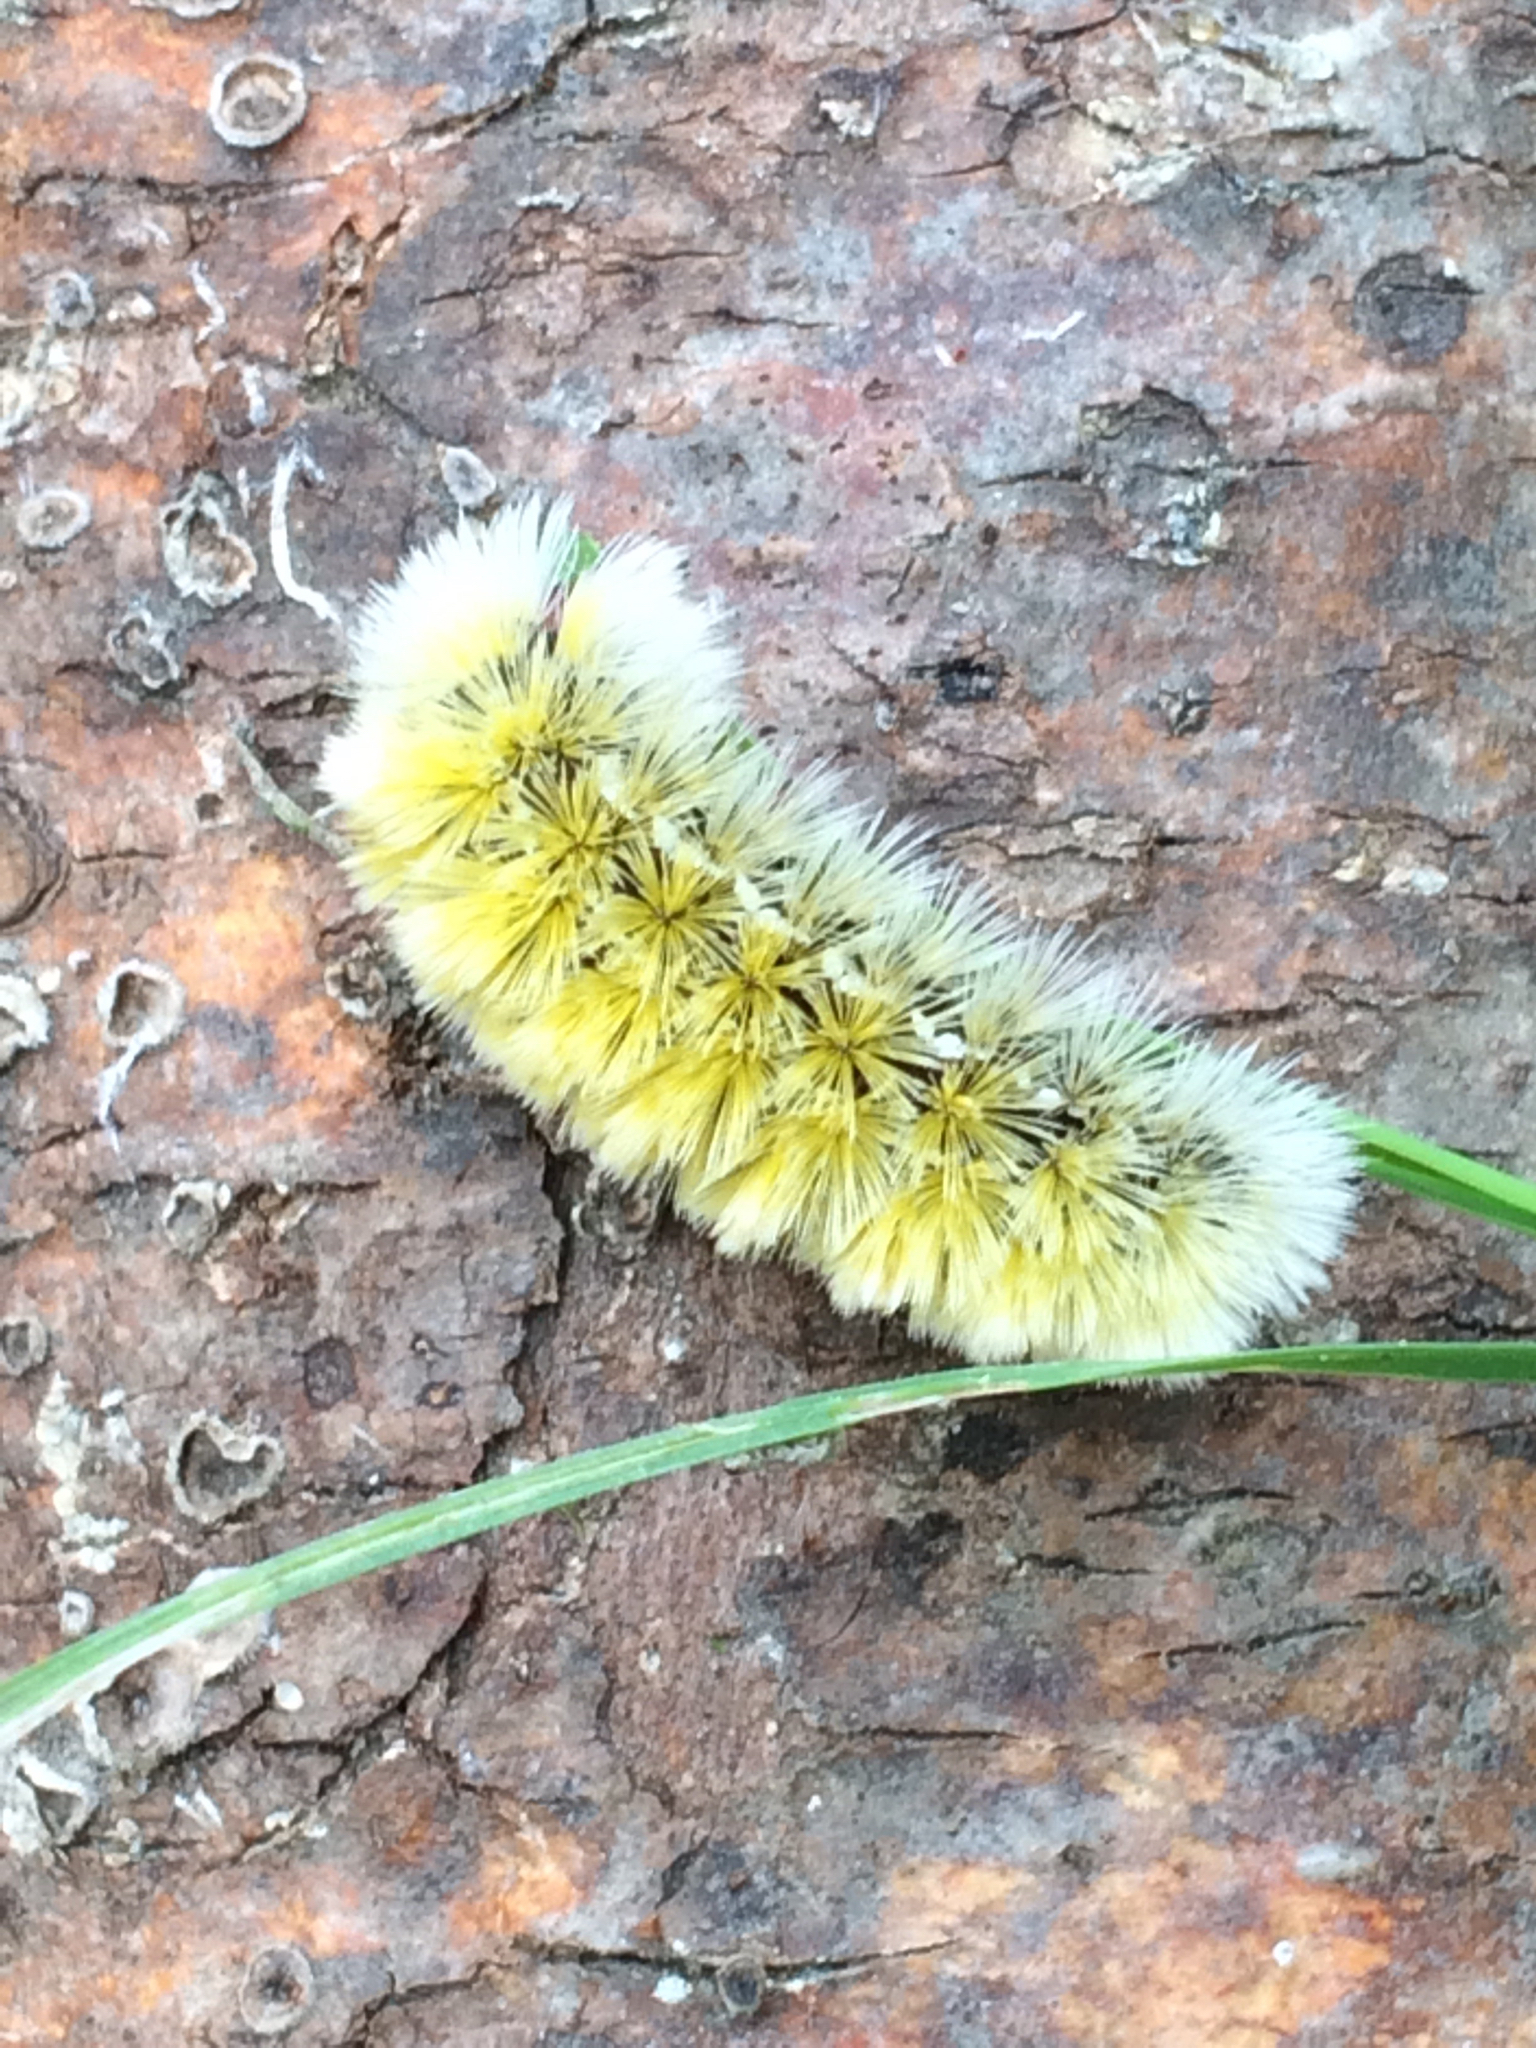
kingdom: Animalia
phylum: Arthropoda
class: Insecta
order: Lepidoptera
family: Erebidae
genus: Ctenucha
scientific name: Ctenucha virginica
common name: Virginia ctenucha moth
